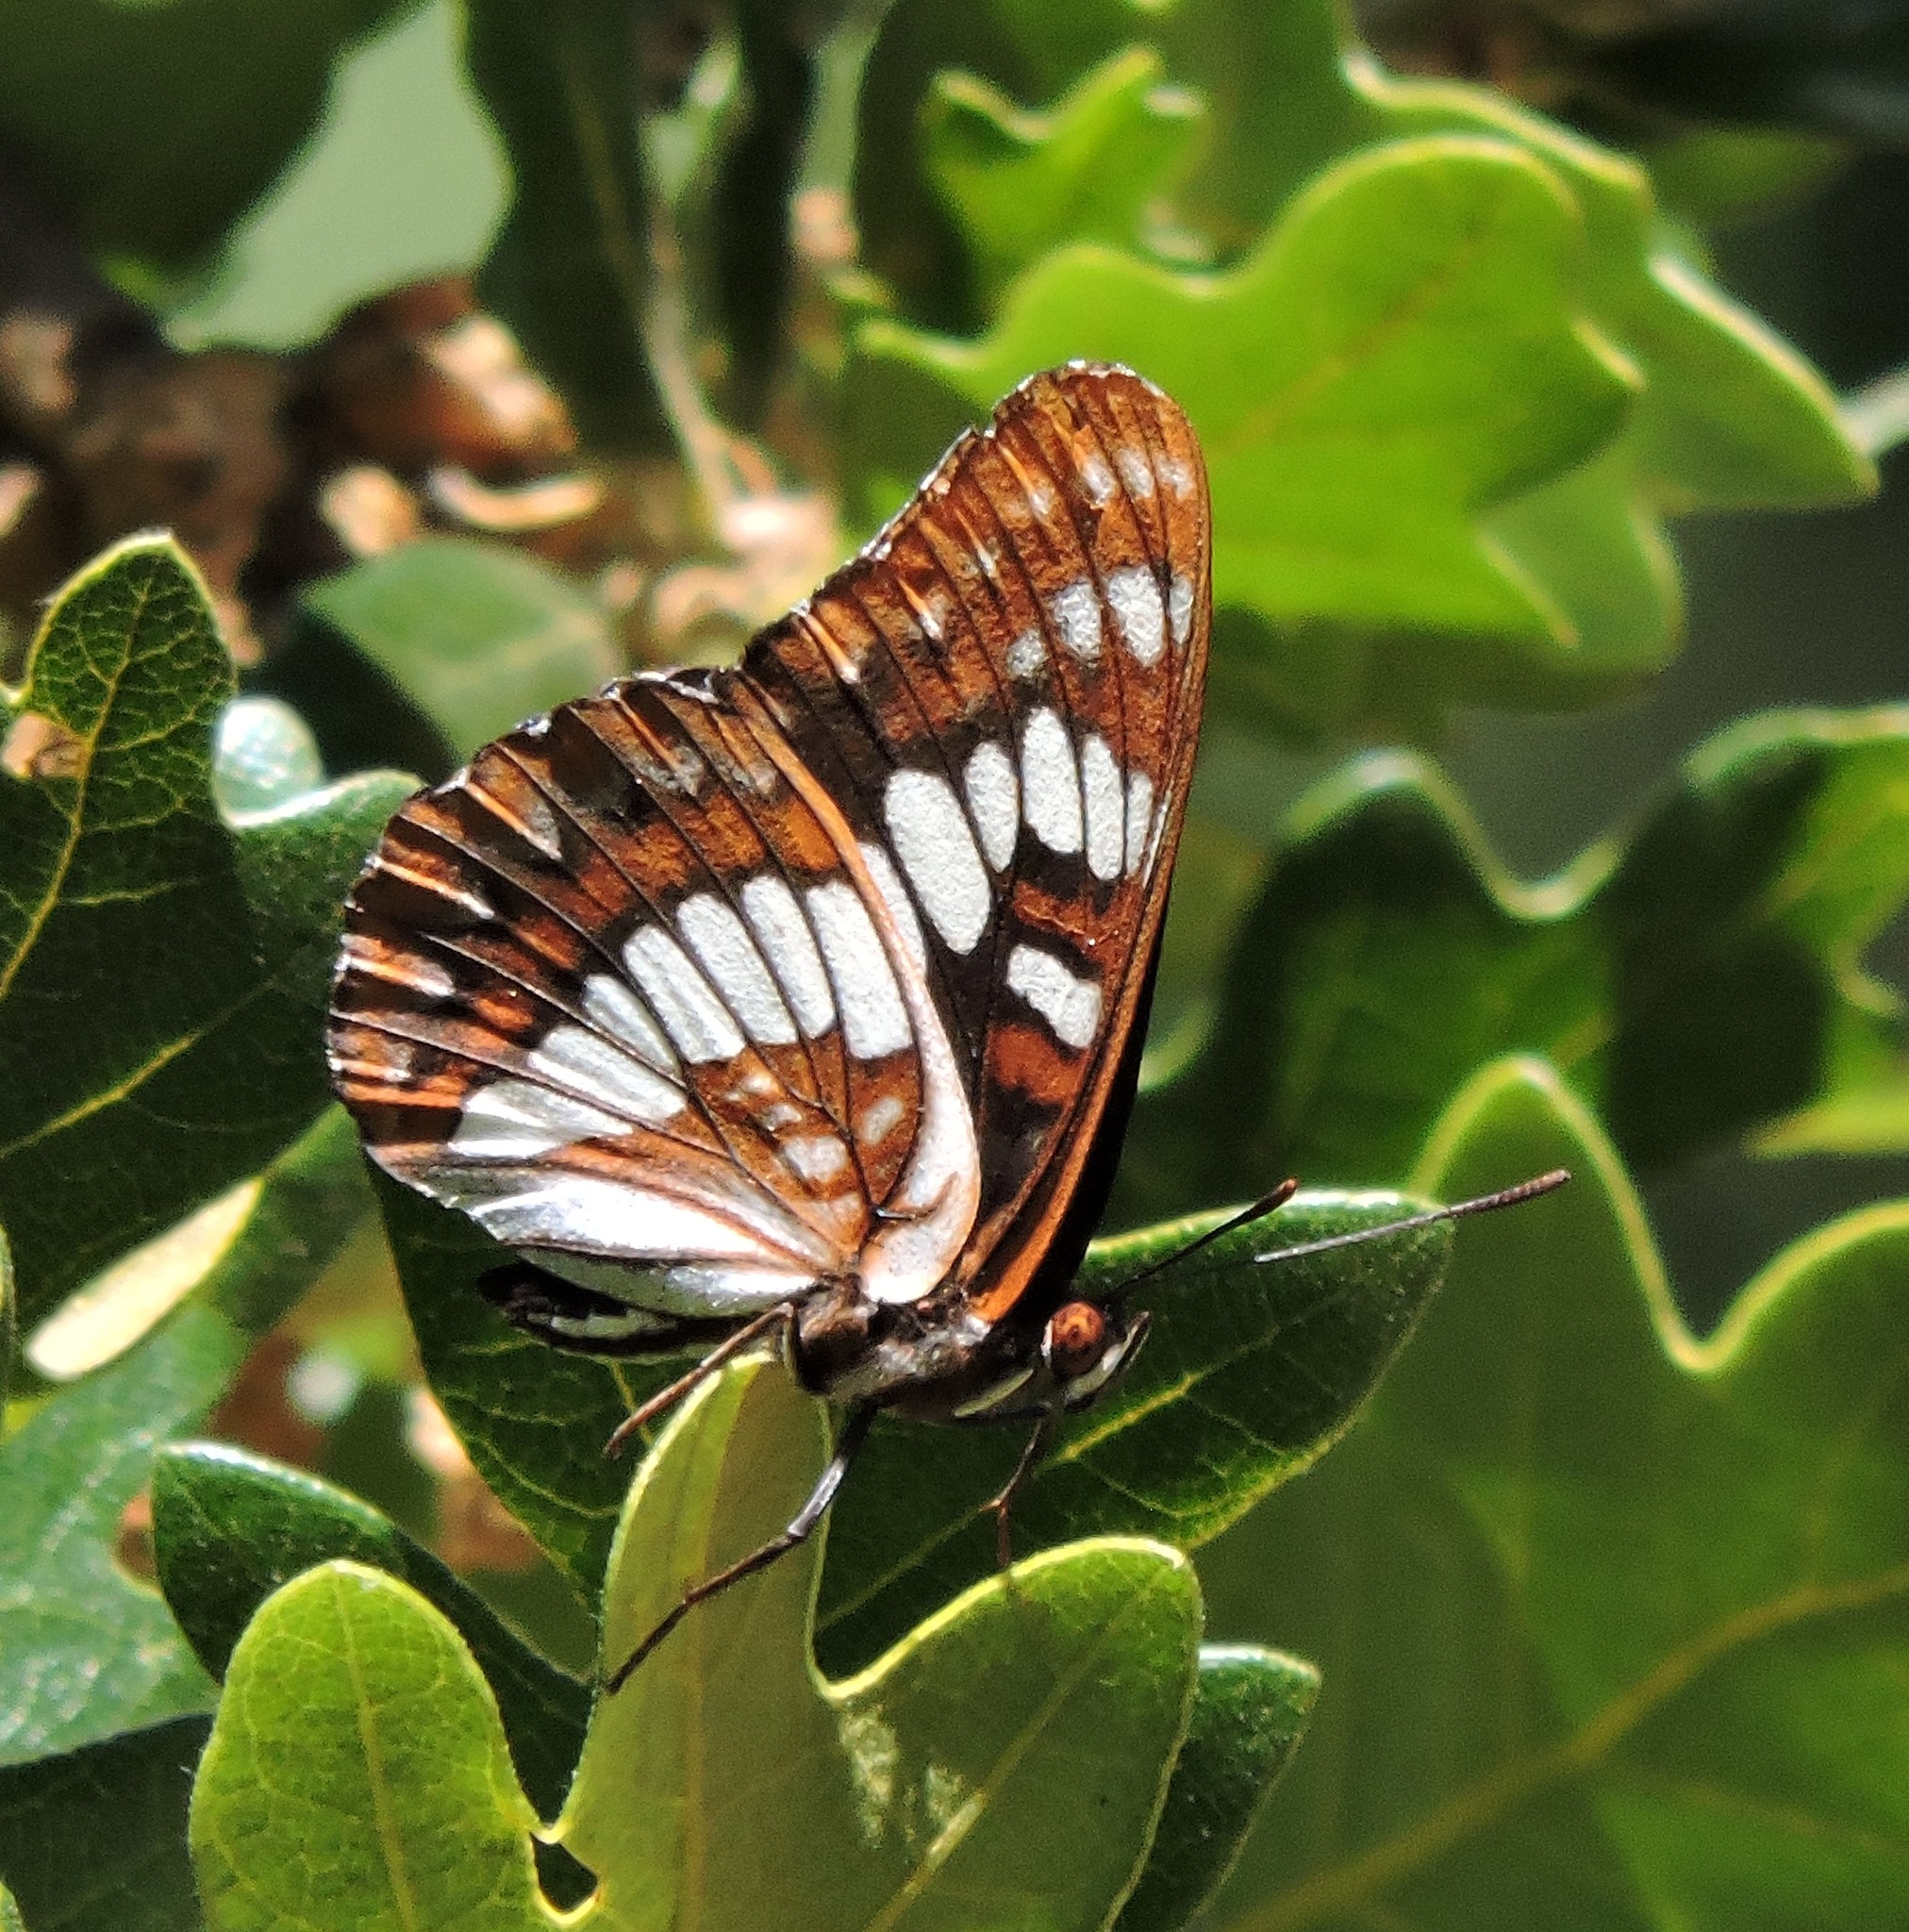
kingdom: Animalia
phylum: Arthropoda
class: Insecta
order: Lepidoptera
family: Nymphalidae
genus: Limenitis
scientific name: Limenitis lorquini
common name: Lorquin's admiral
